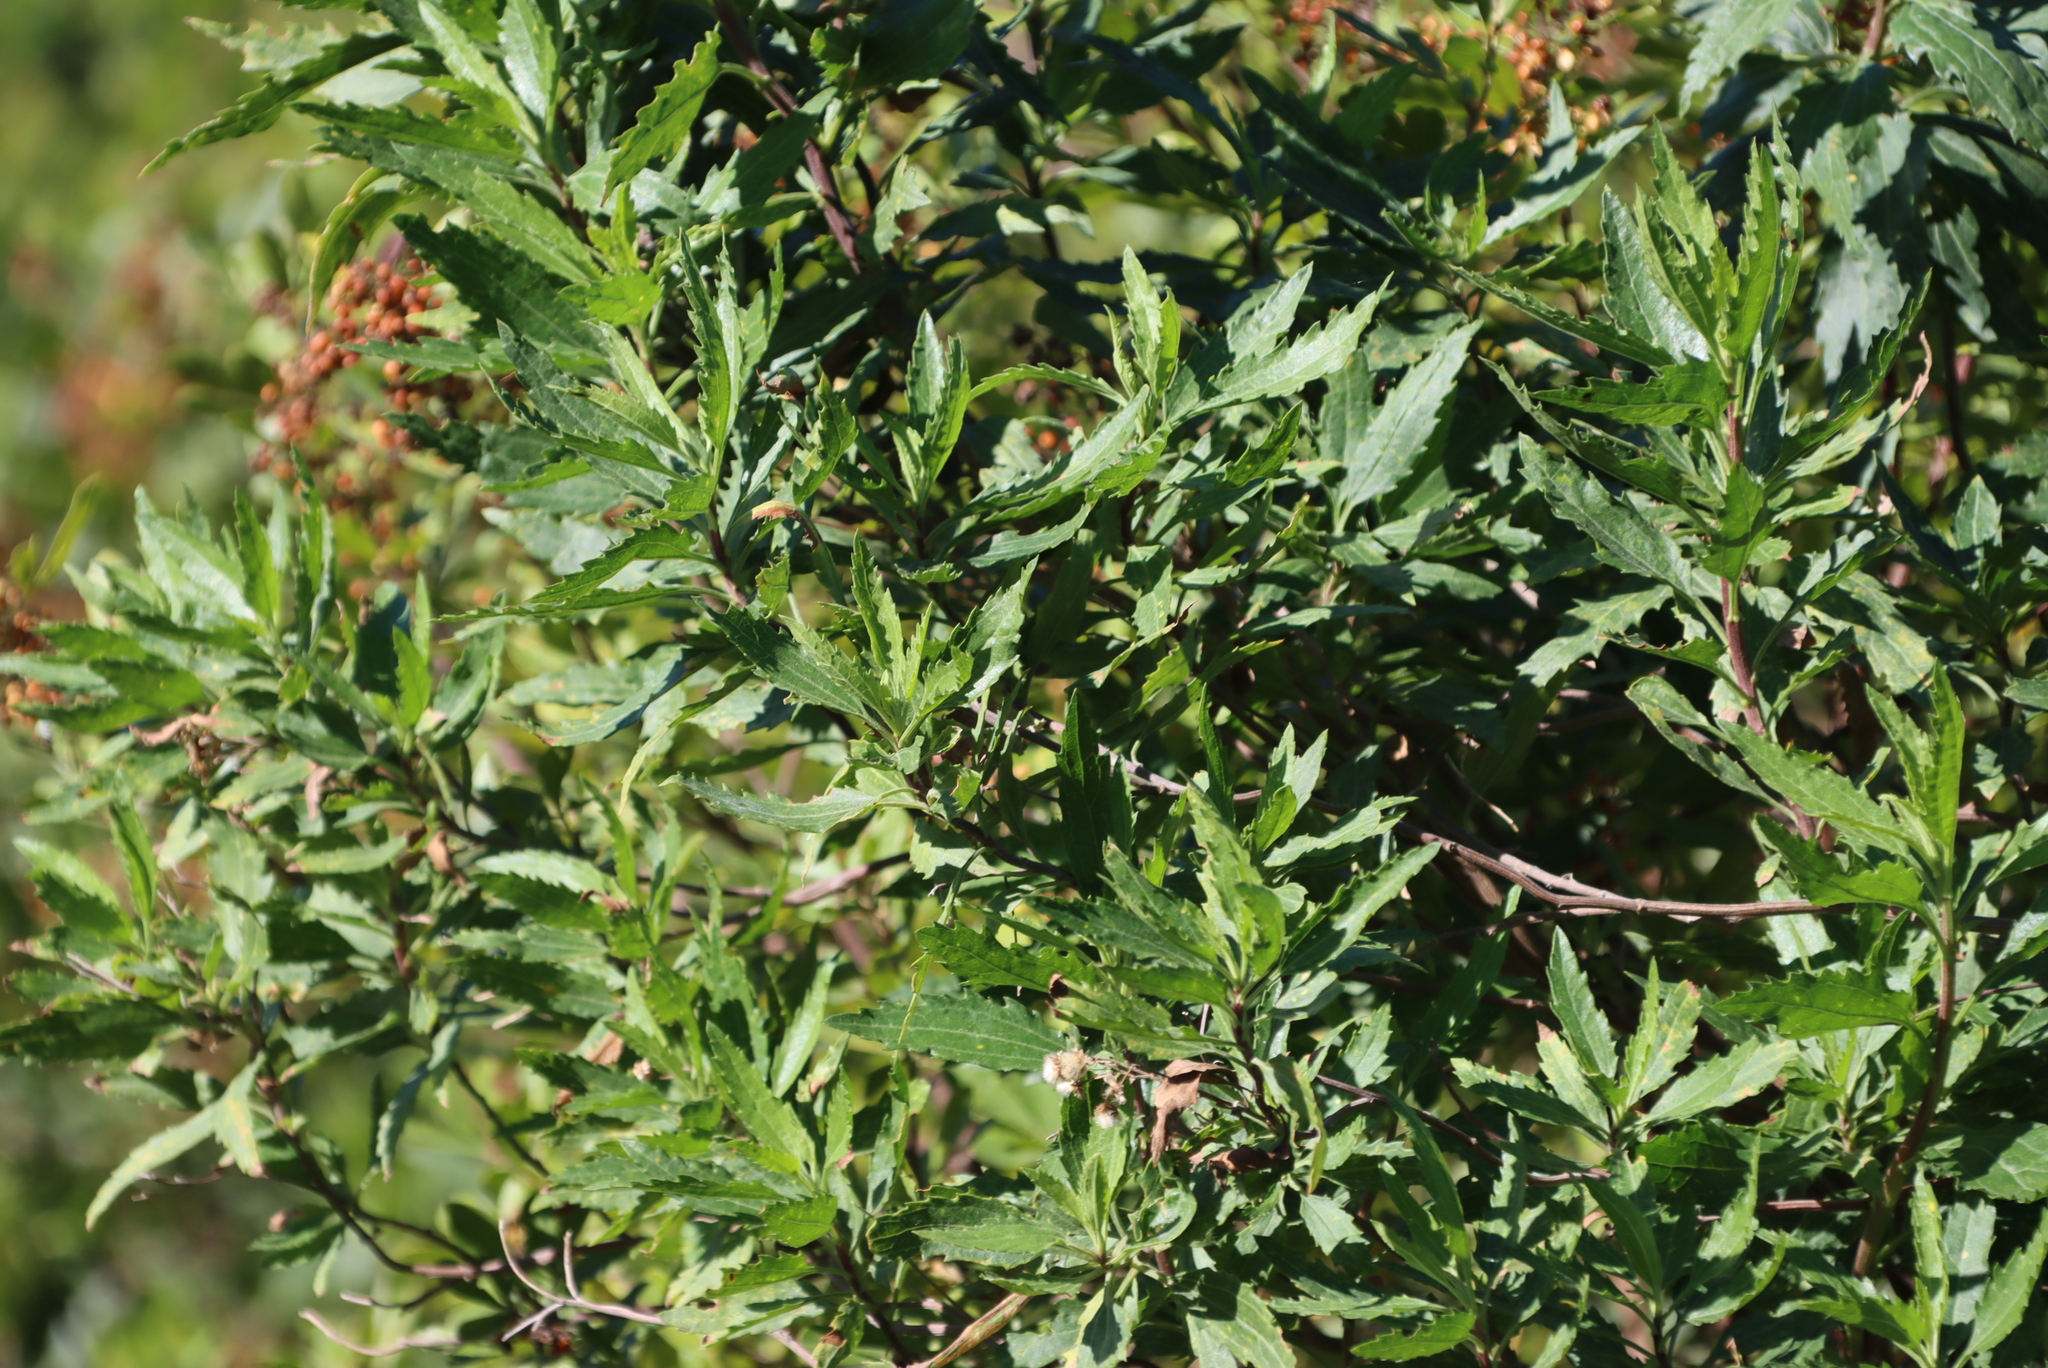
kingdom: Plantae
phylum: Tracheophyta
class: Magnoliopsida
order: Asterales
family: Asteraceae
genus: Nidorella
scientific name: Nidorella ivifolia
